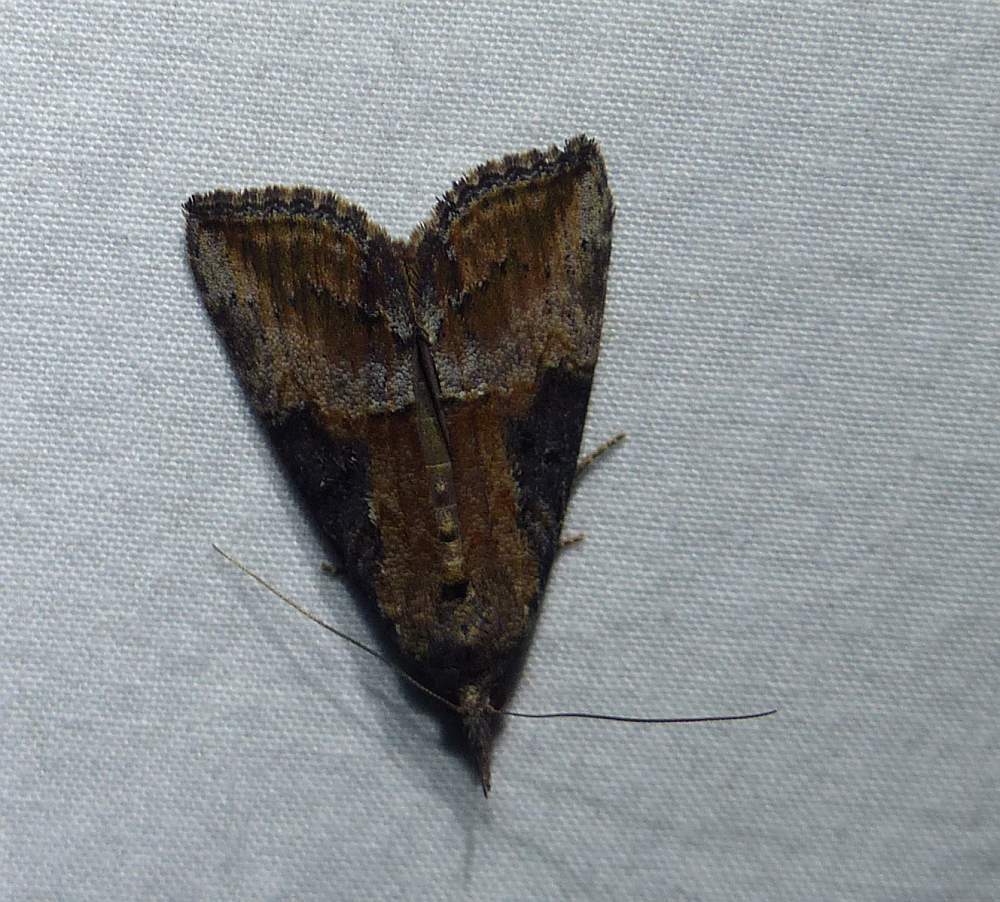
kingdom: Animalia
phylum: Arthropoda
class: Insecta
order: Lepidoptera
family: Erebidae
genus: Hypena
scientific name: Hypena scabra
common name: Green cloverworm
